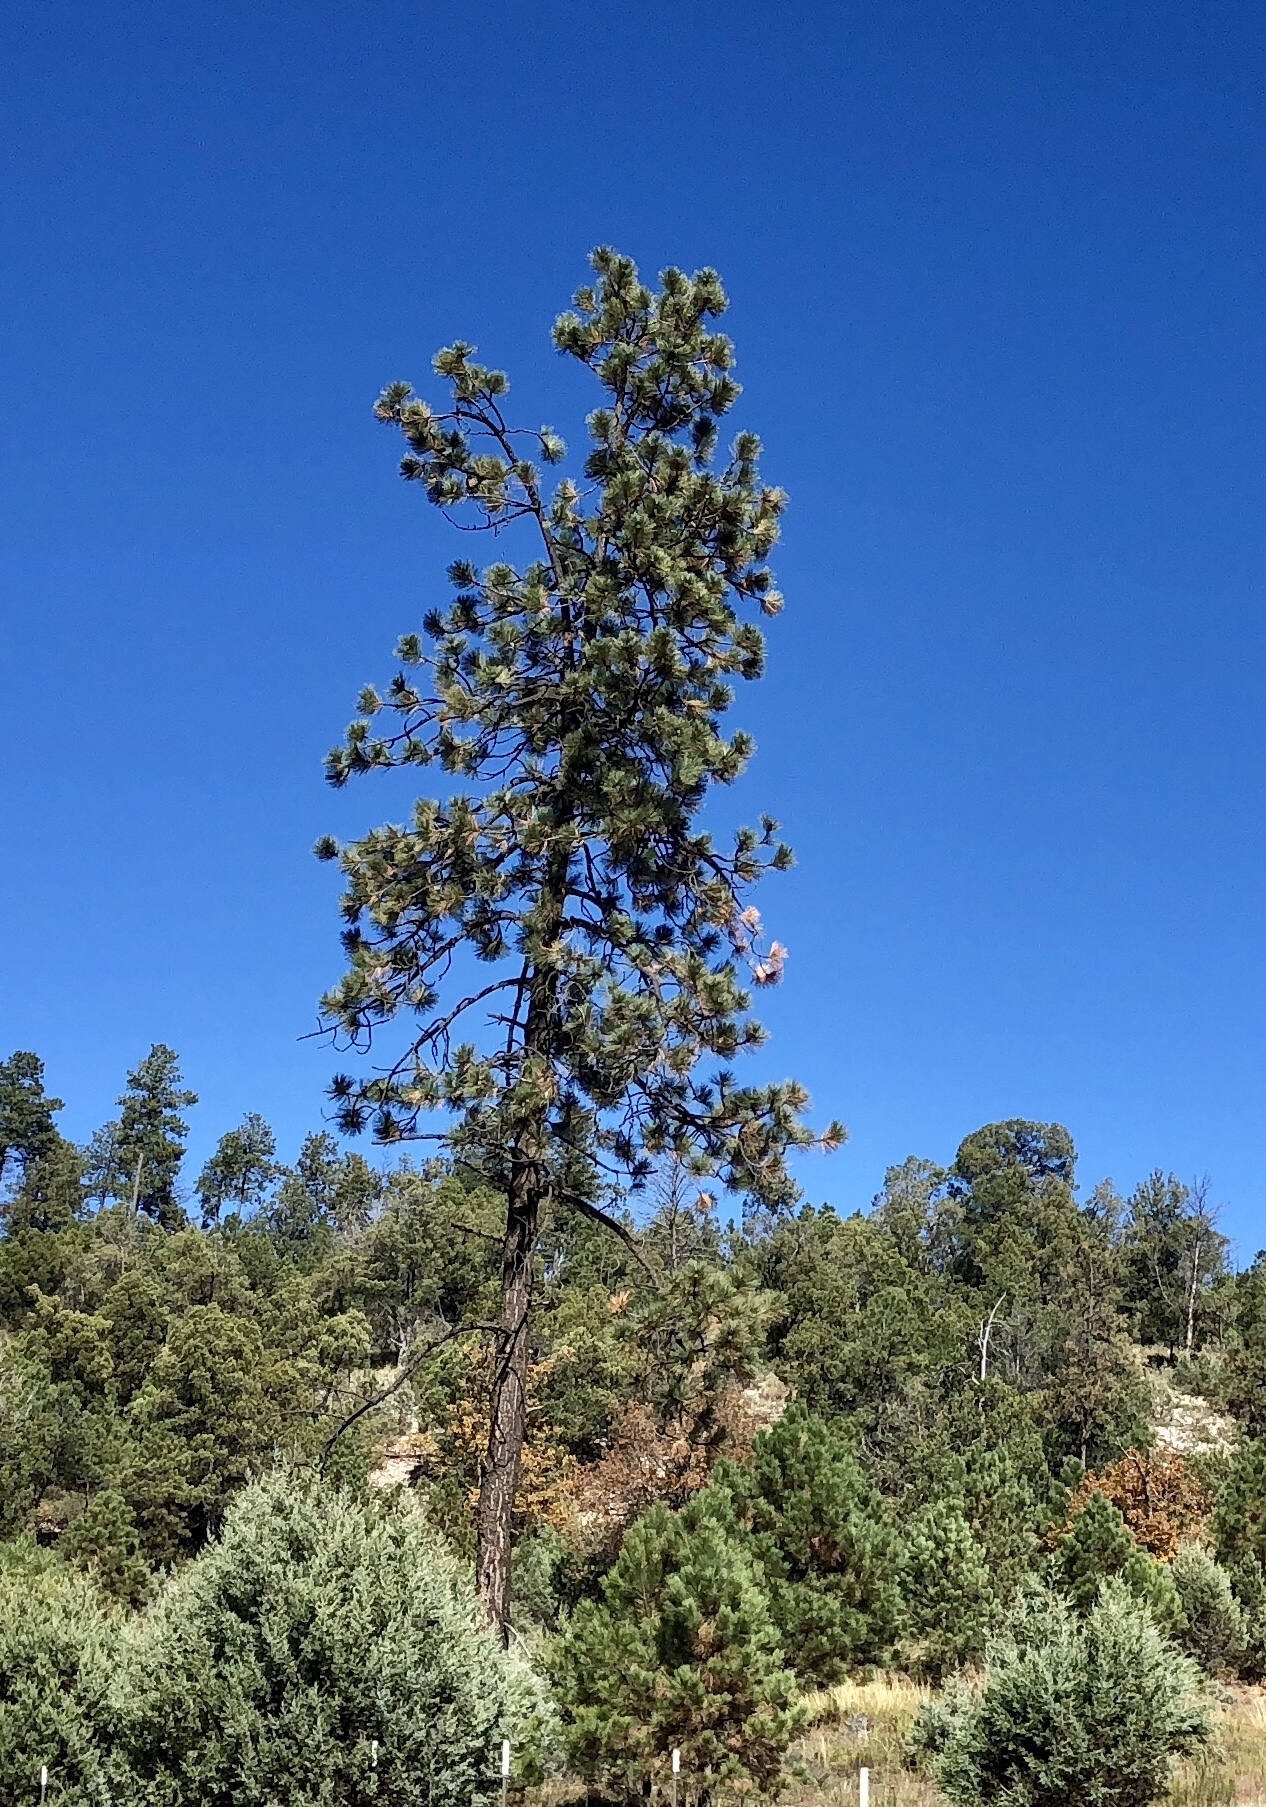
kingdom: Plantae
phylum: Tracheophyta
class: Pinopsida
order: Pinales
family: Pinaceae
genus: Pinus
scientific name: Pinus ponderosa
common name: Western yellow-pine
